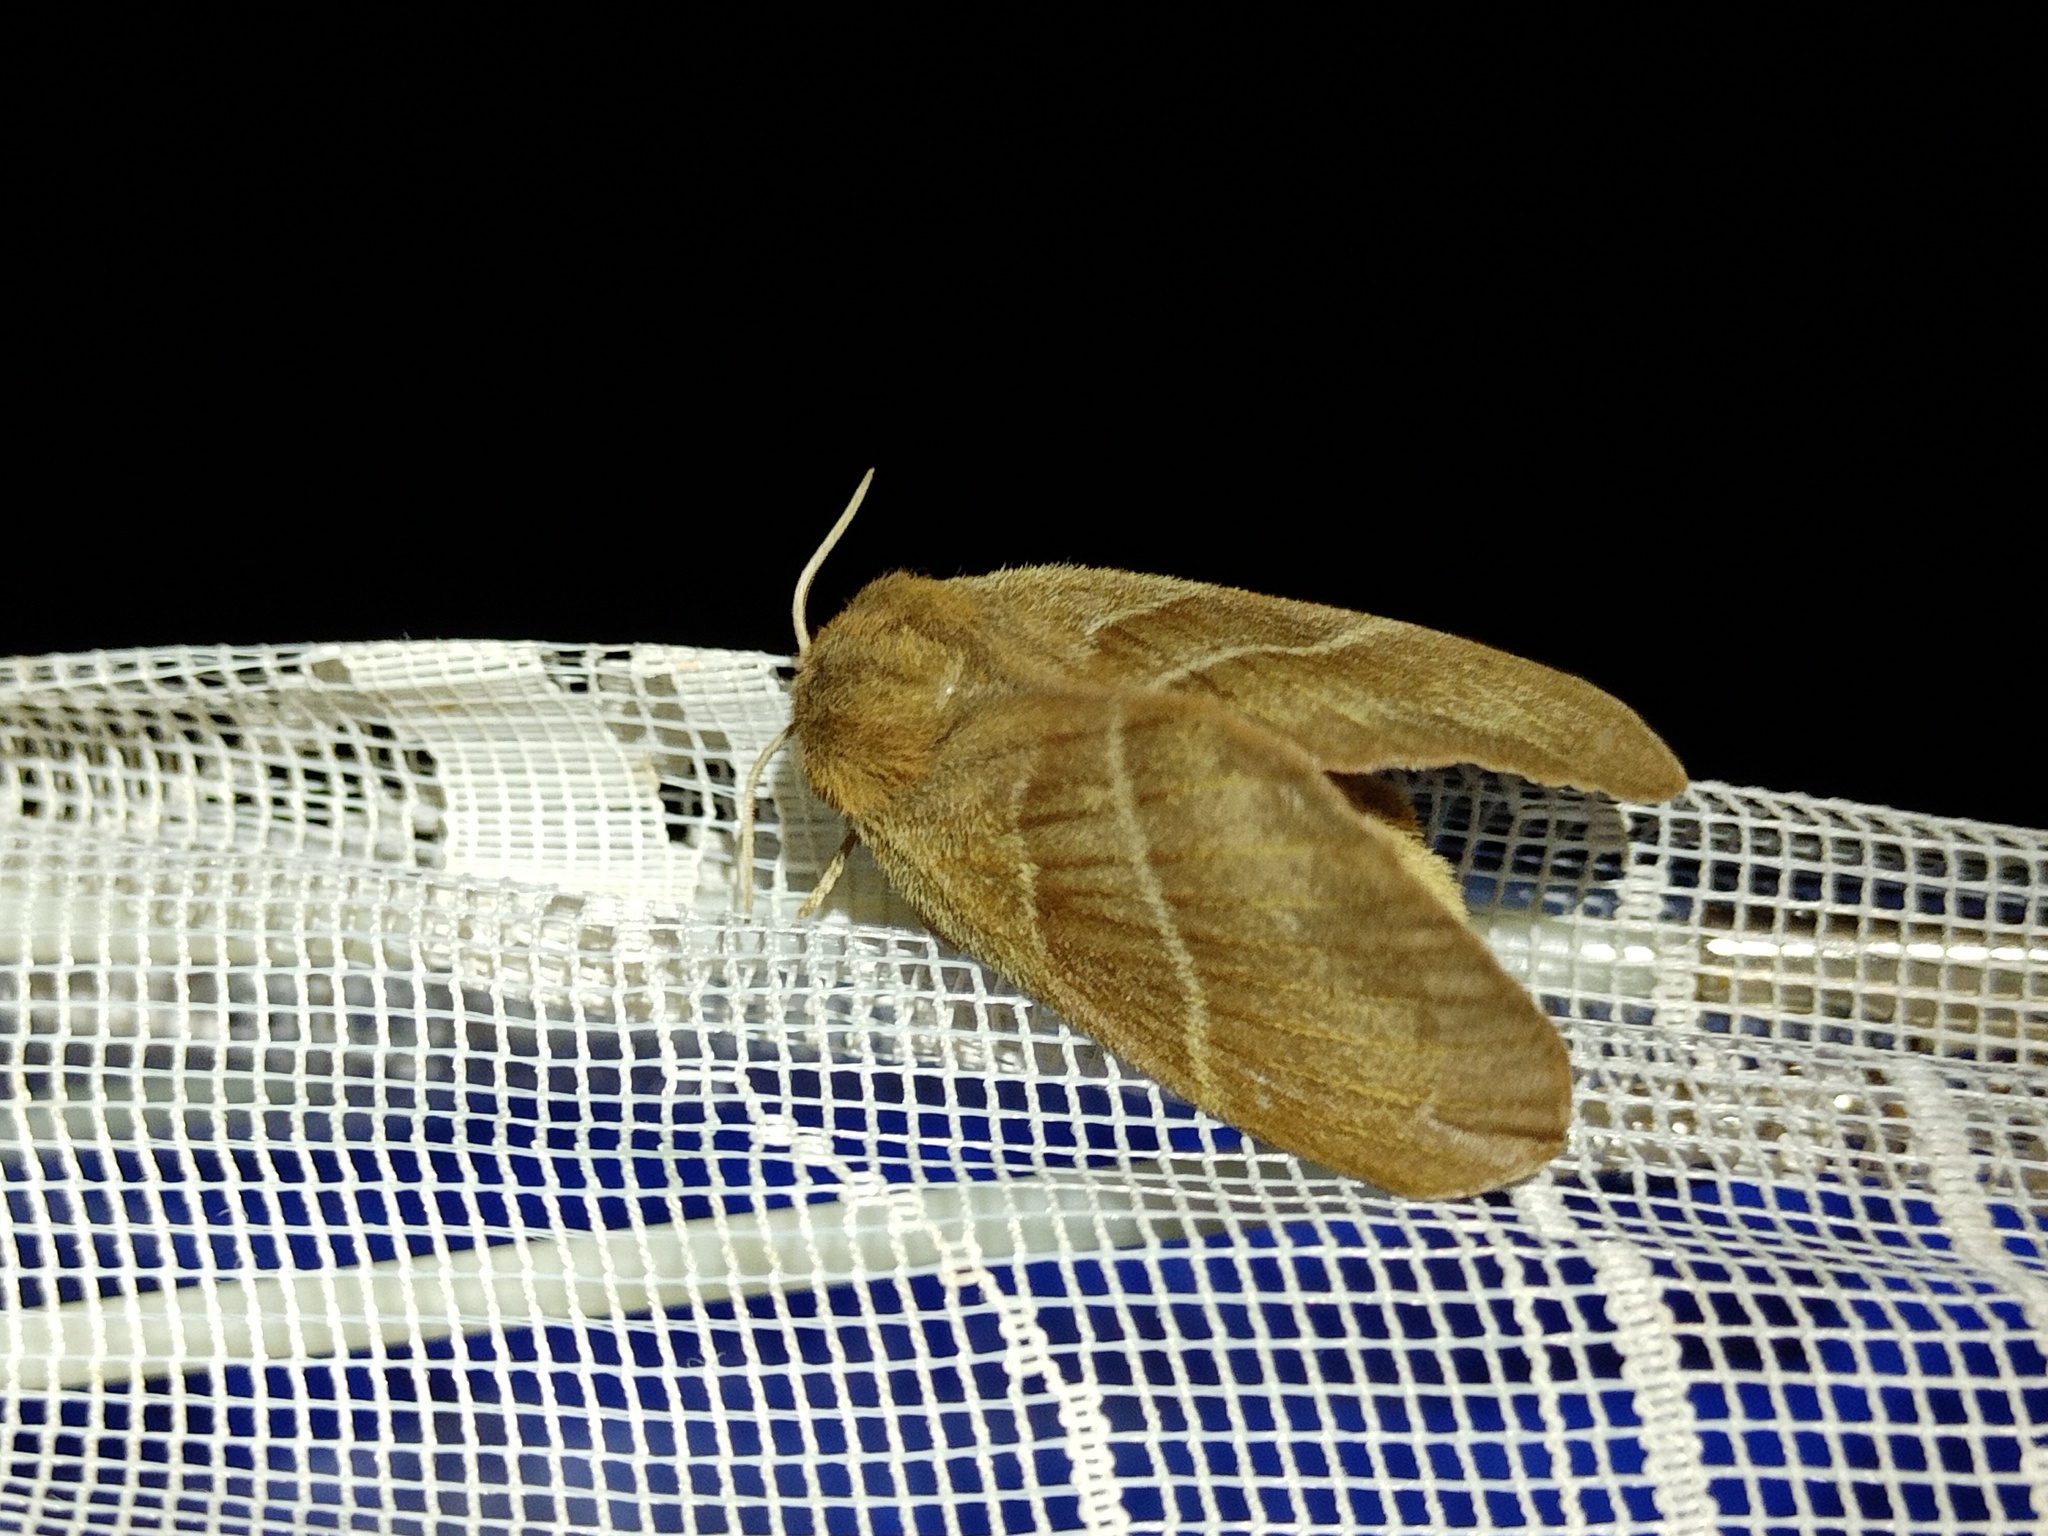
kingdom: Animalia
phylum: Arthropoda
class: Insecta
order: Lepidoptera
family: Lasiocampidae
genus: Macrothylacia
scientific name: Macrothylacia rubi
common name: Fox moth
